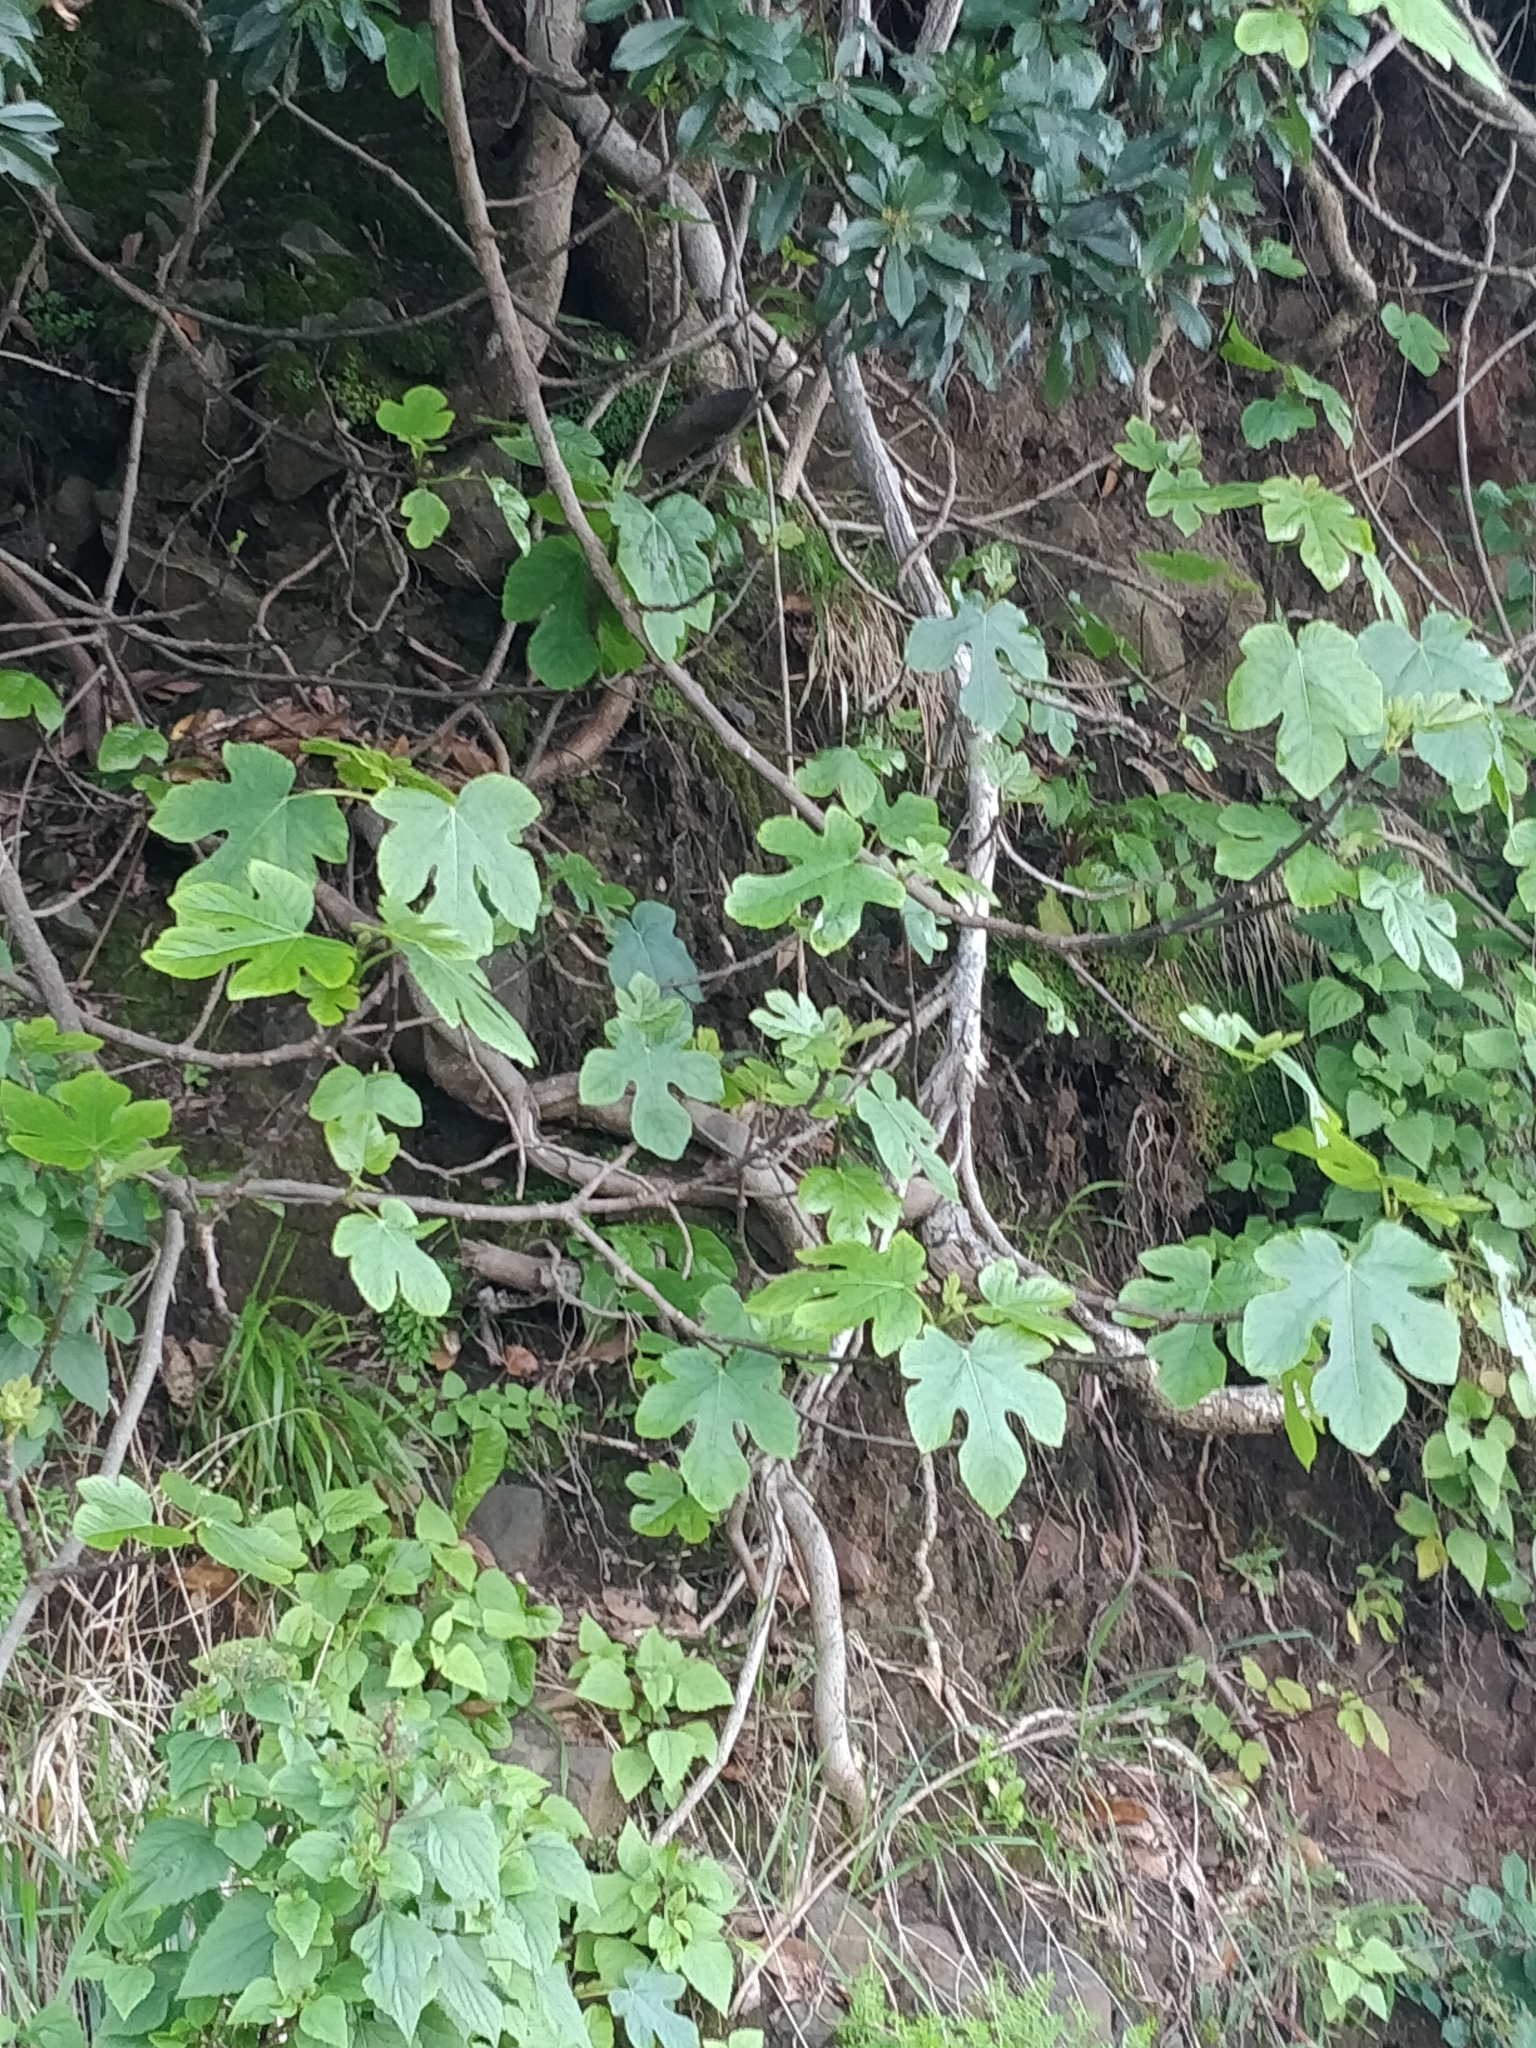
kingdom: Plantae
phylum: Tracheophyta
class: Magnoliopsida
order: Rosales
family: Moraceae
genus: Ficus
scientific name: Ficus carica
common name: Fig
